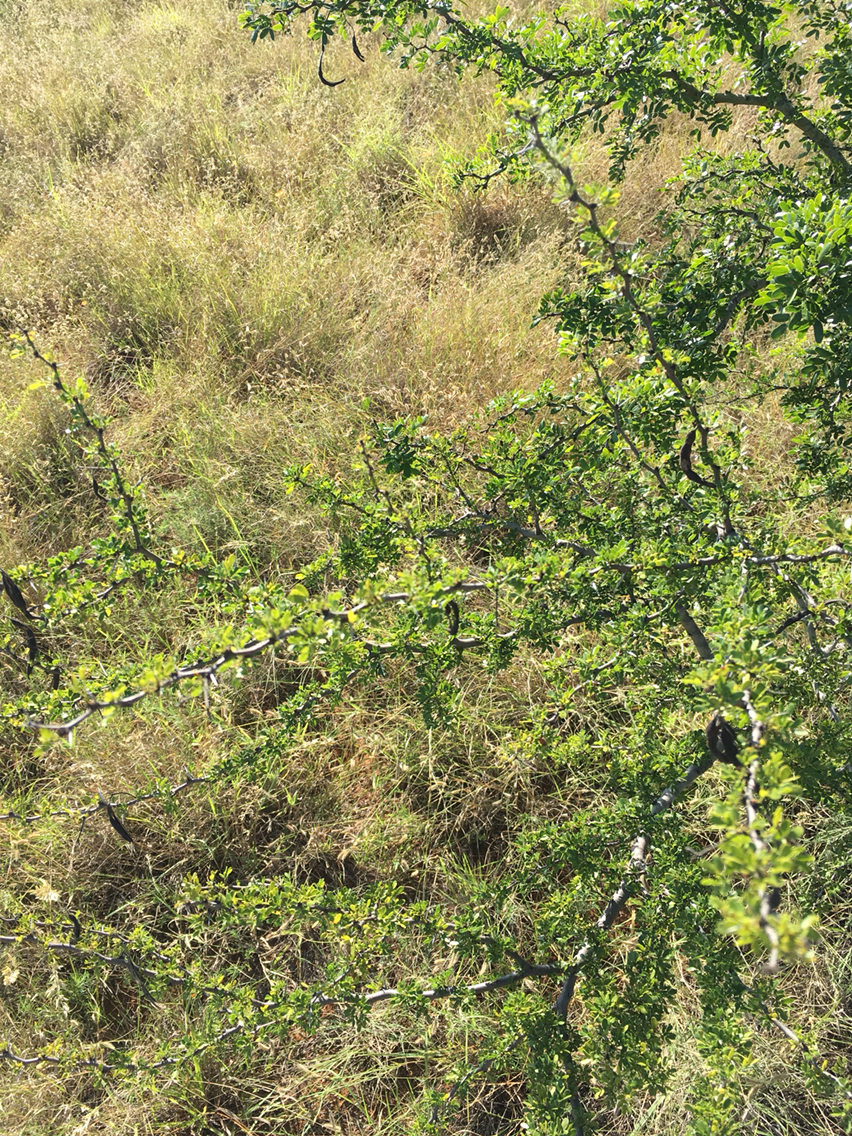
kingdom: Plantae
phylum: Tracheophyta
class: Magnoliopsida
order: Fabales
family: Fabaceae
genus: Vachellia
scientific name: Vachellia rigidula
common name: Blackbrush
